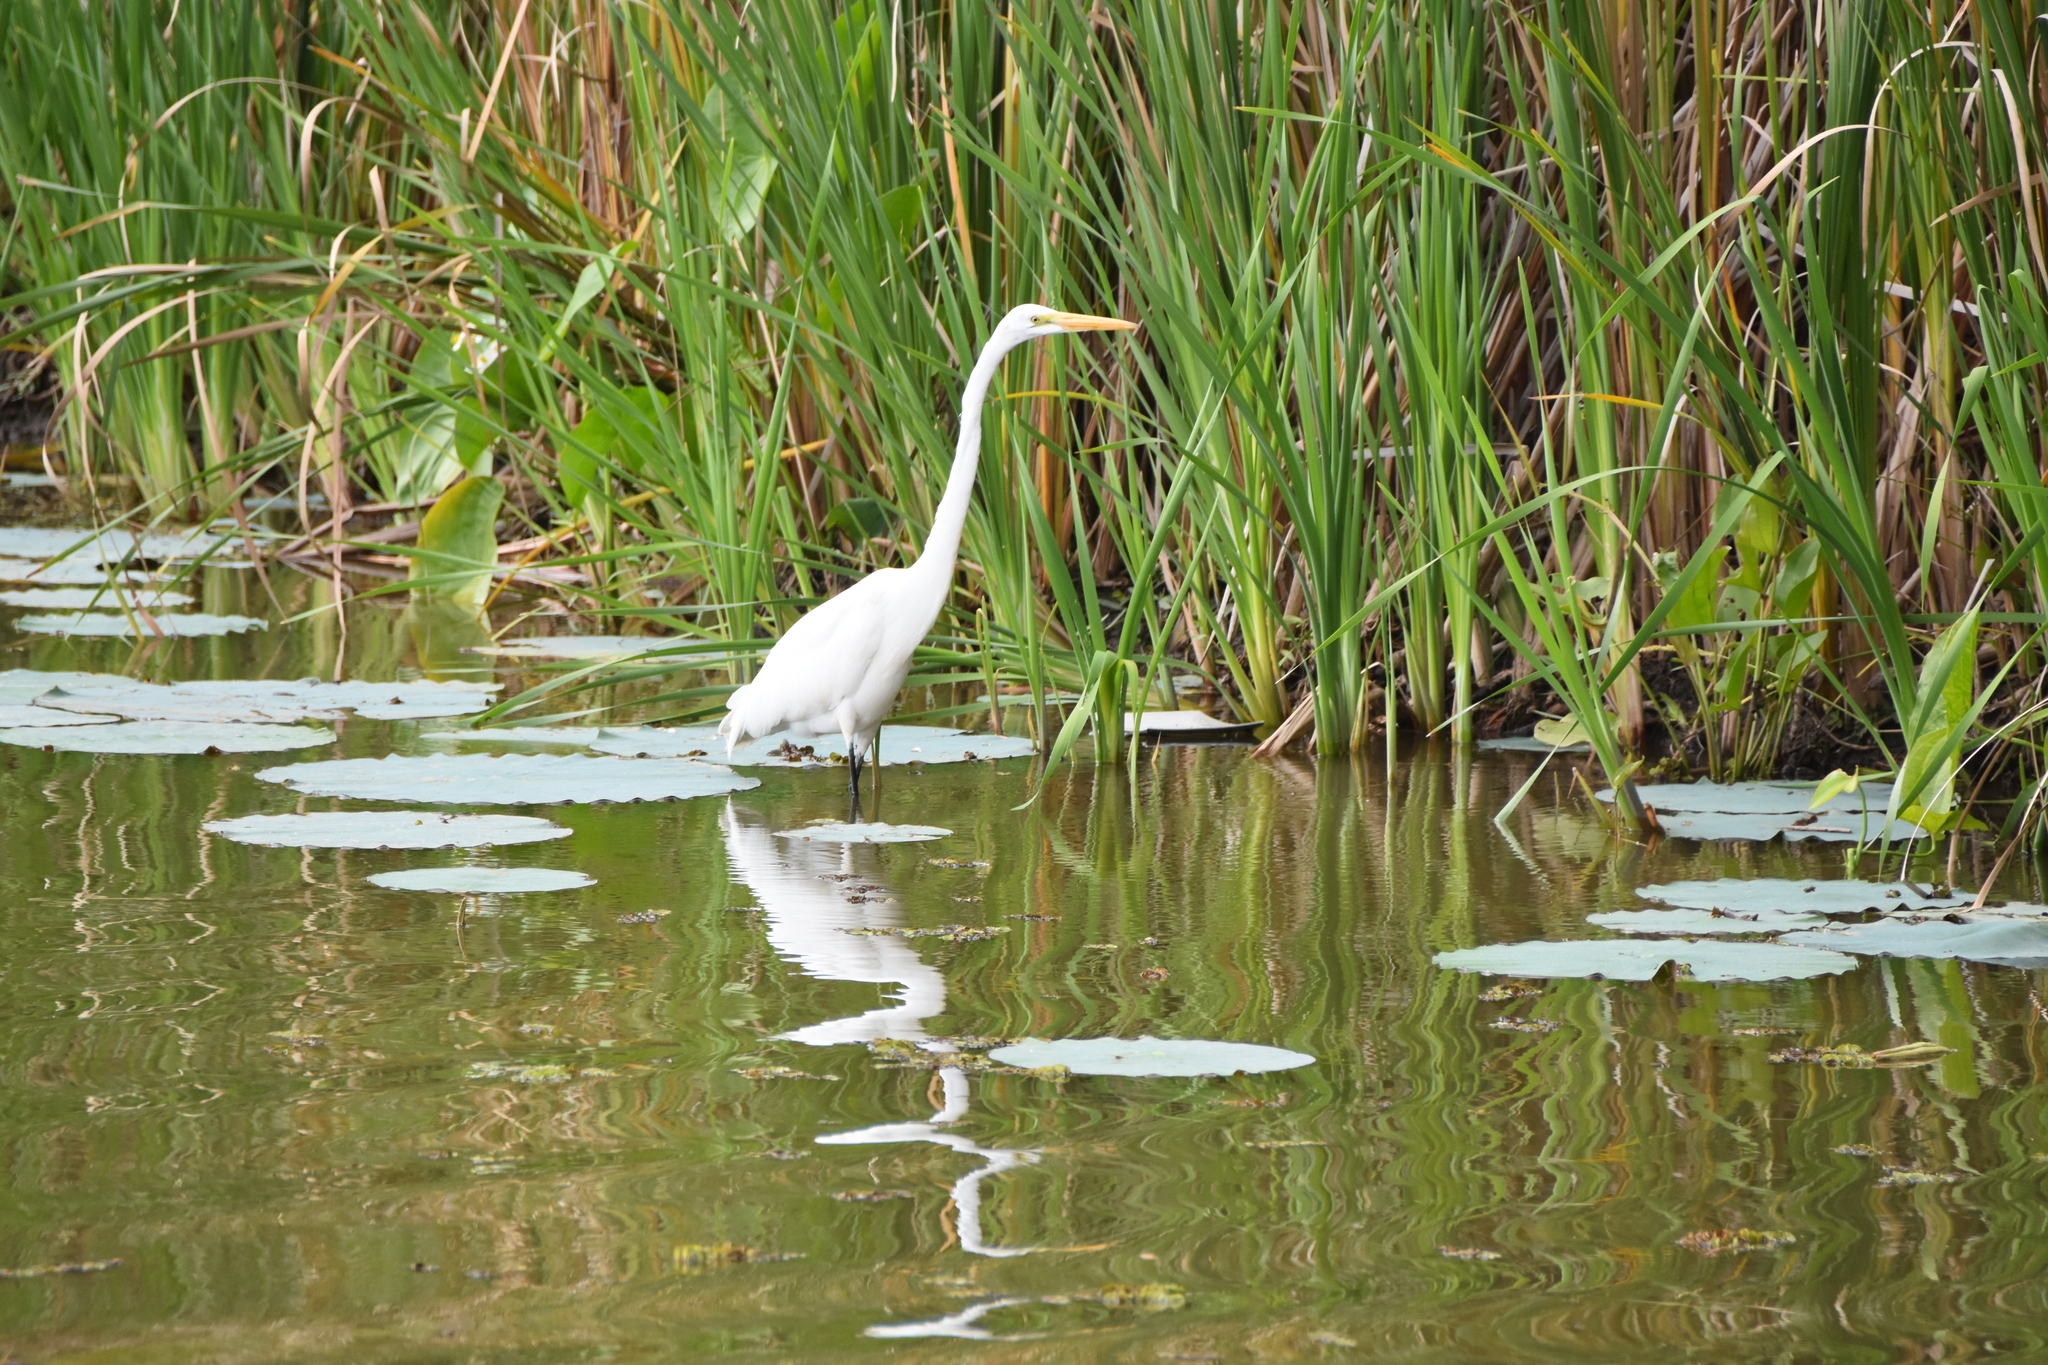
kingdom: Animalia
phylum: Chordata
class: Aves
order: Pelecaniformes
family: Ardeidae
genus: Ardea
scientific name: Ardea alba
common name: Great egret
